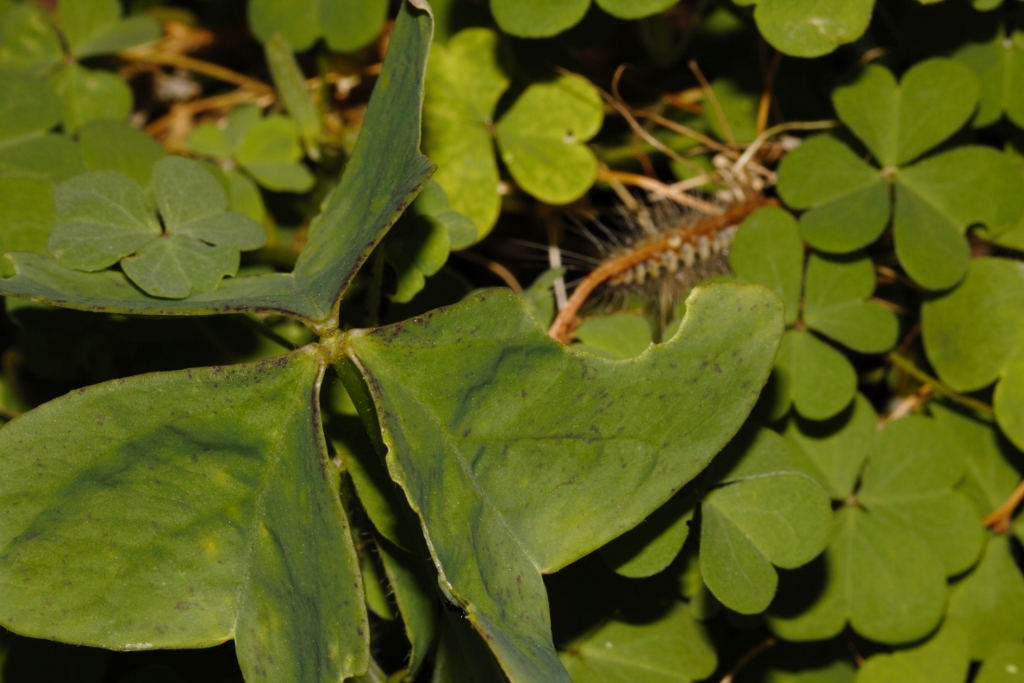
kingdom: Plantae
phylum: Tracheophyta
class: Magnoliopsida
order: Oxalidales
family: Oxalidaceae
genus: Oxalis
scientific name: Oxalis latifolia
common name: Garden pink-sorrel
